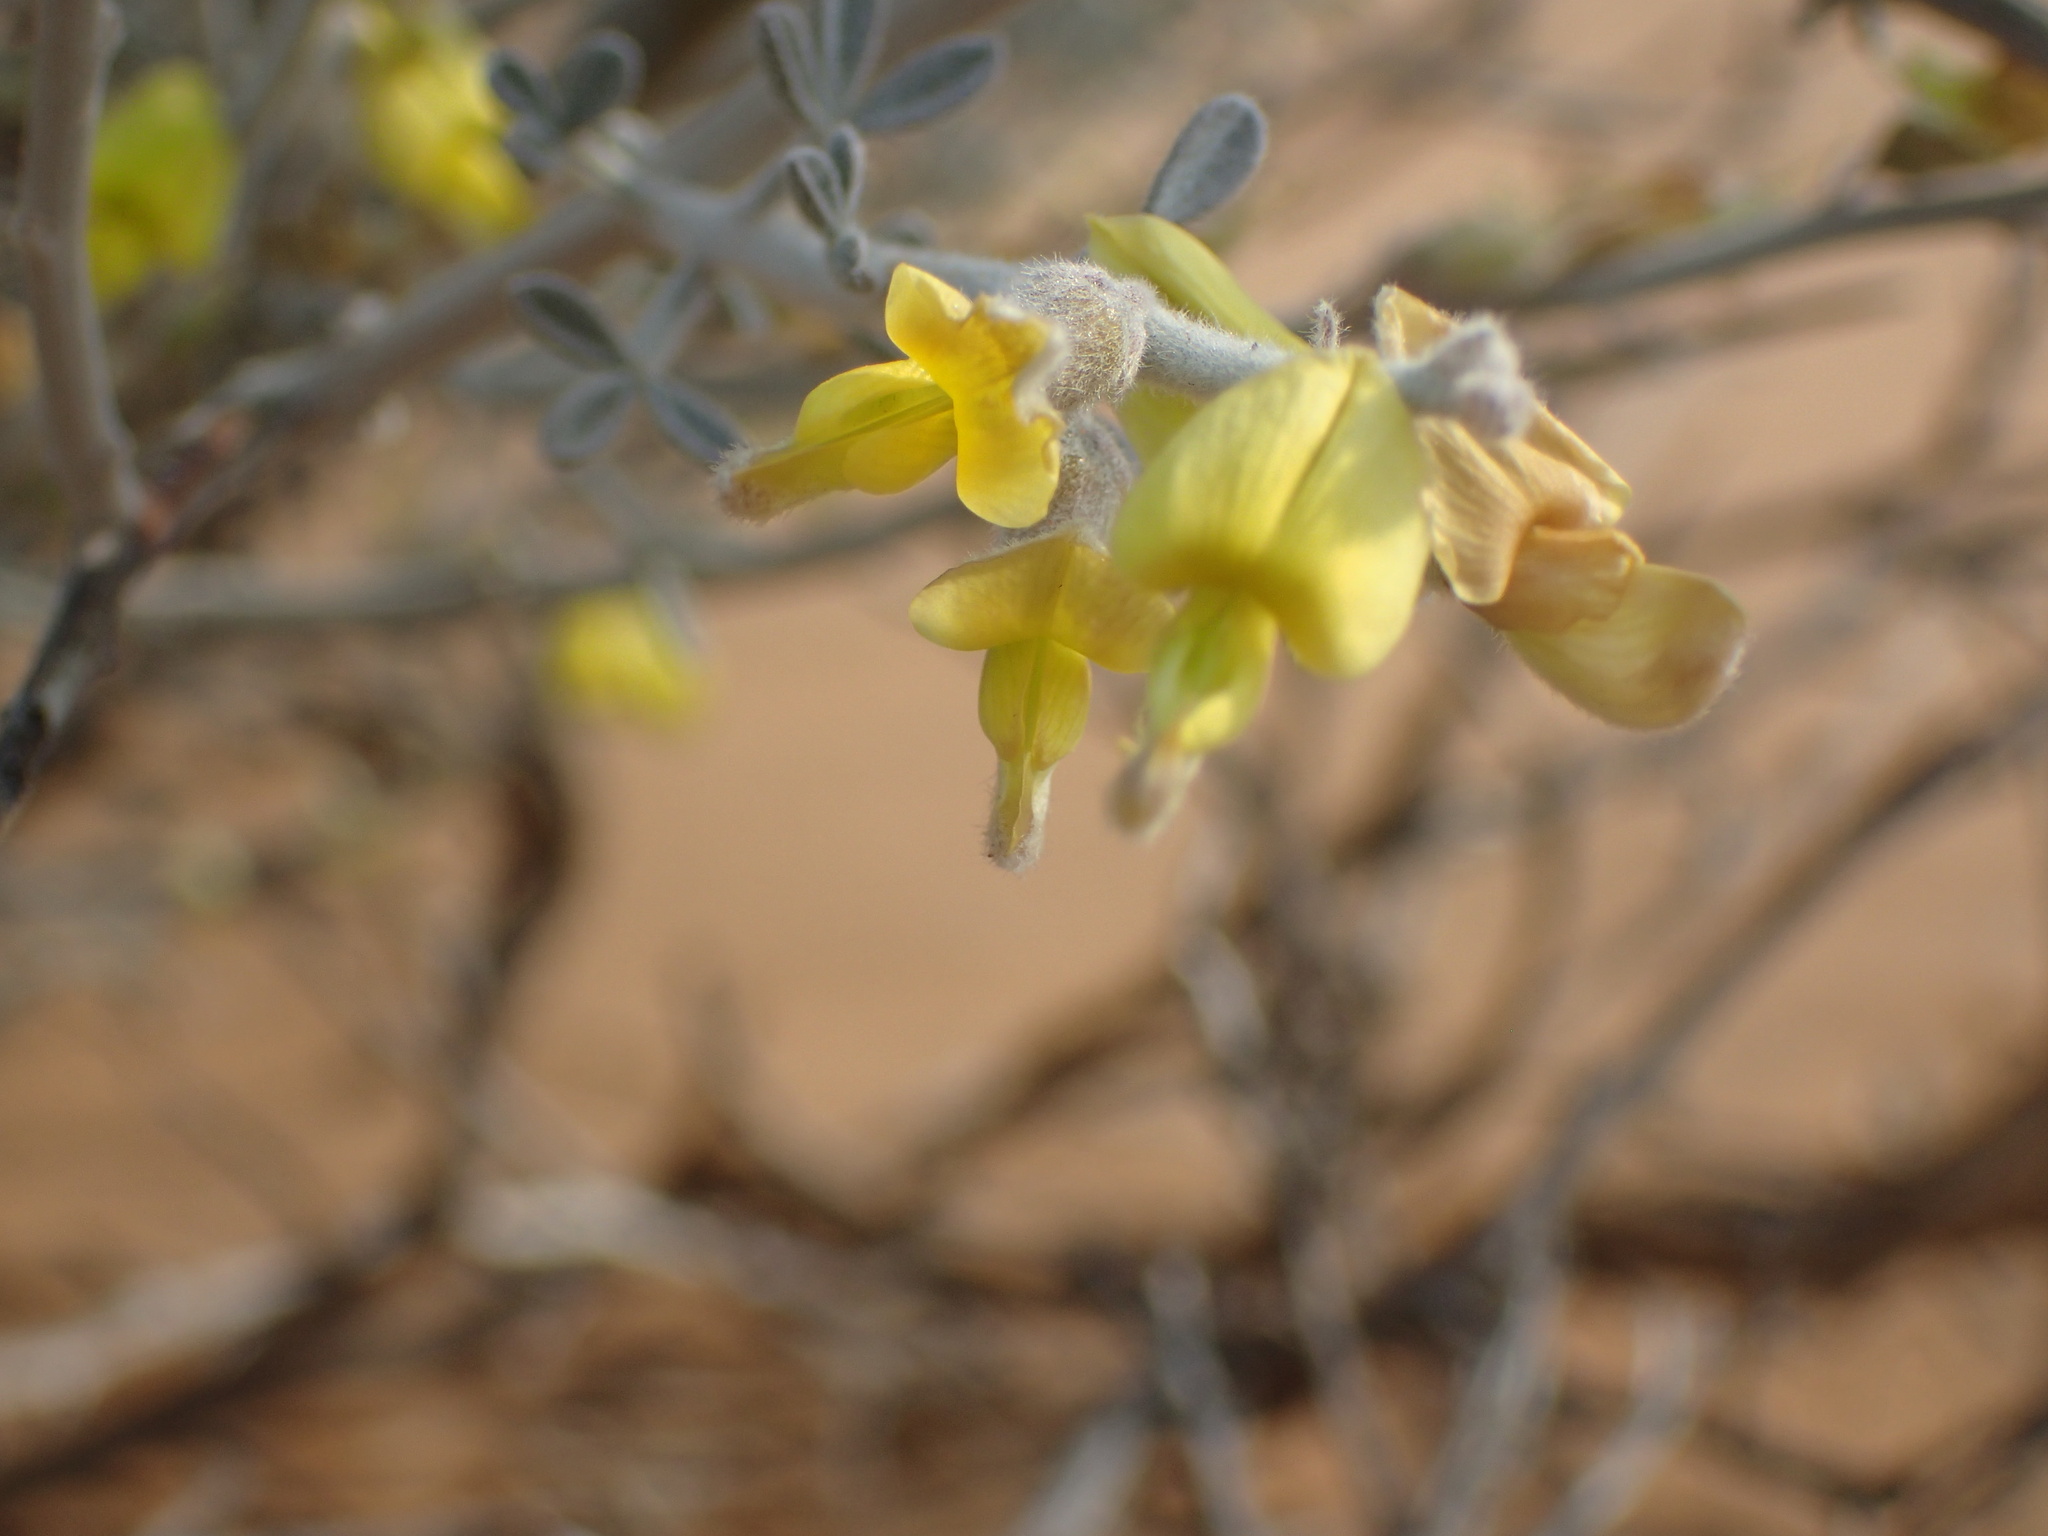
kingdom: Plantae
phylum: Tracheophyta
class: Magnoliopsida
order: Fabales
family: Fabaceae
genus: Calobota
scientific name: Calobota cinerea
